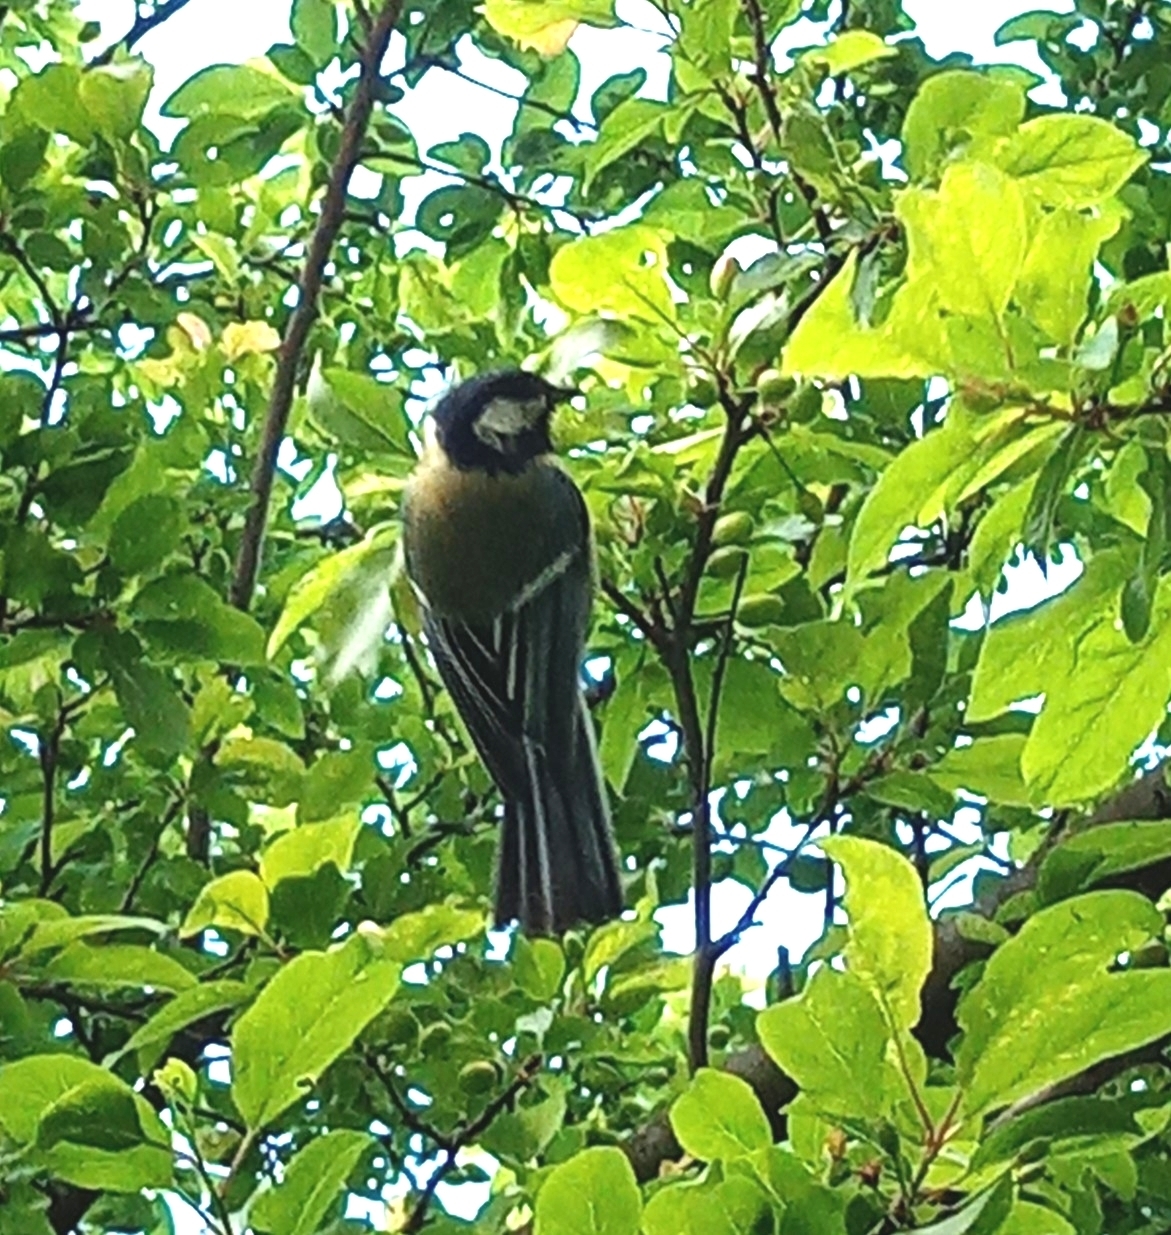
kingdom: Animalia
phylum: Chordata
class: Aves
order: Passeriformes
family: Paridae
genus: Parus
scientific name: Parus major
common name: Great tit
